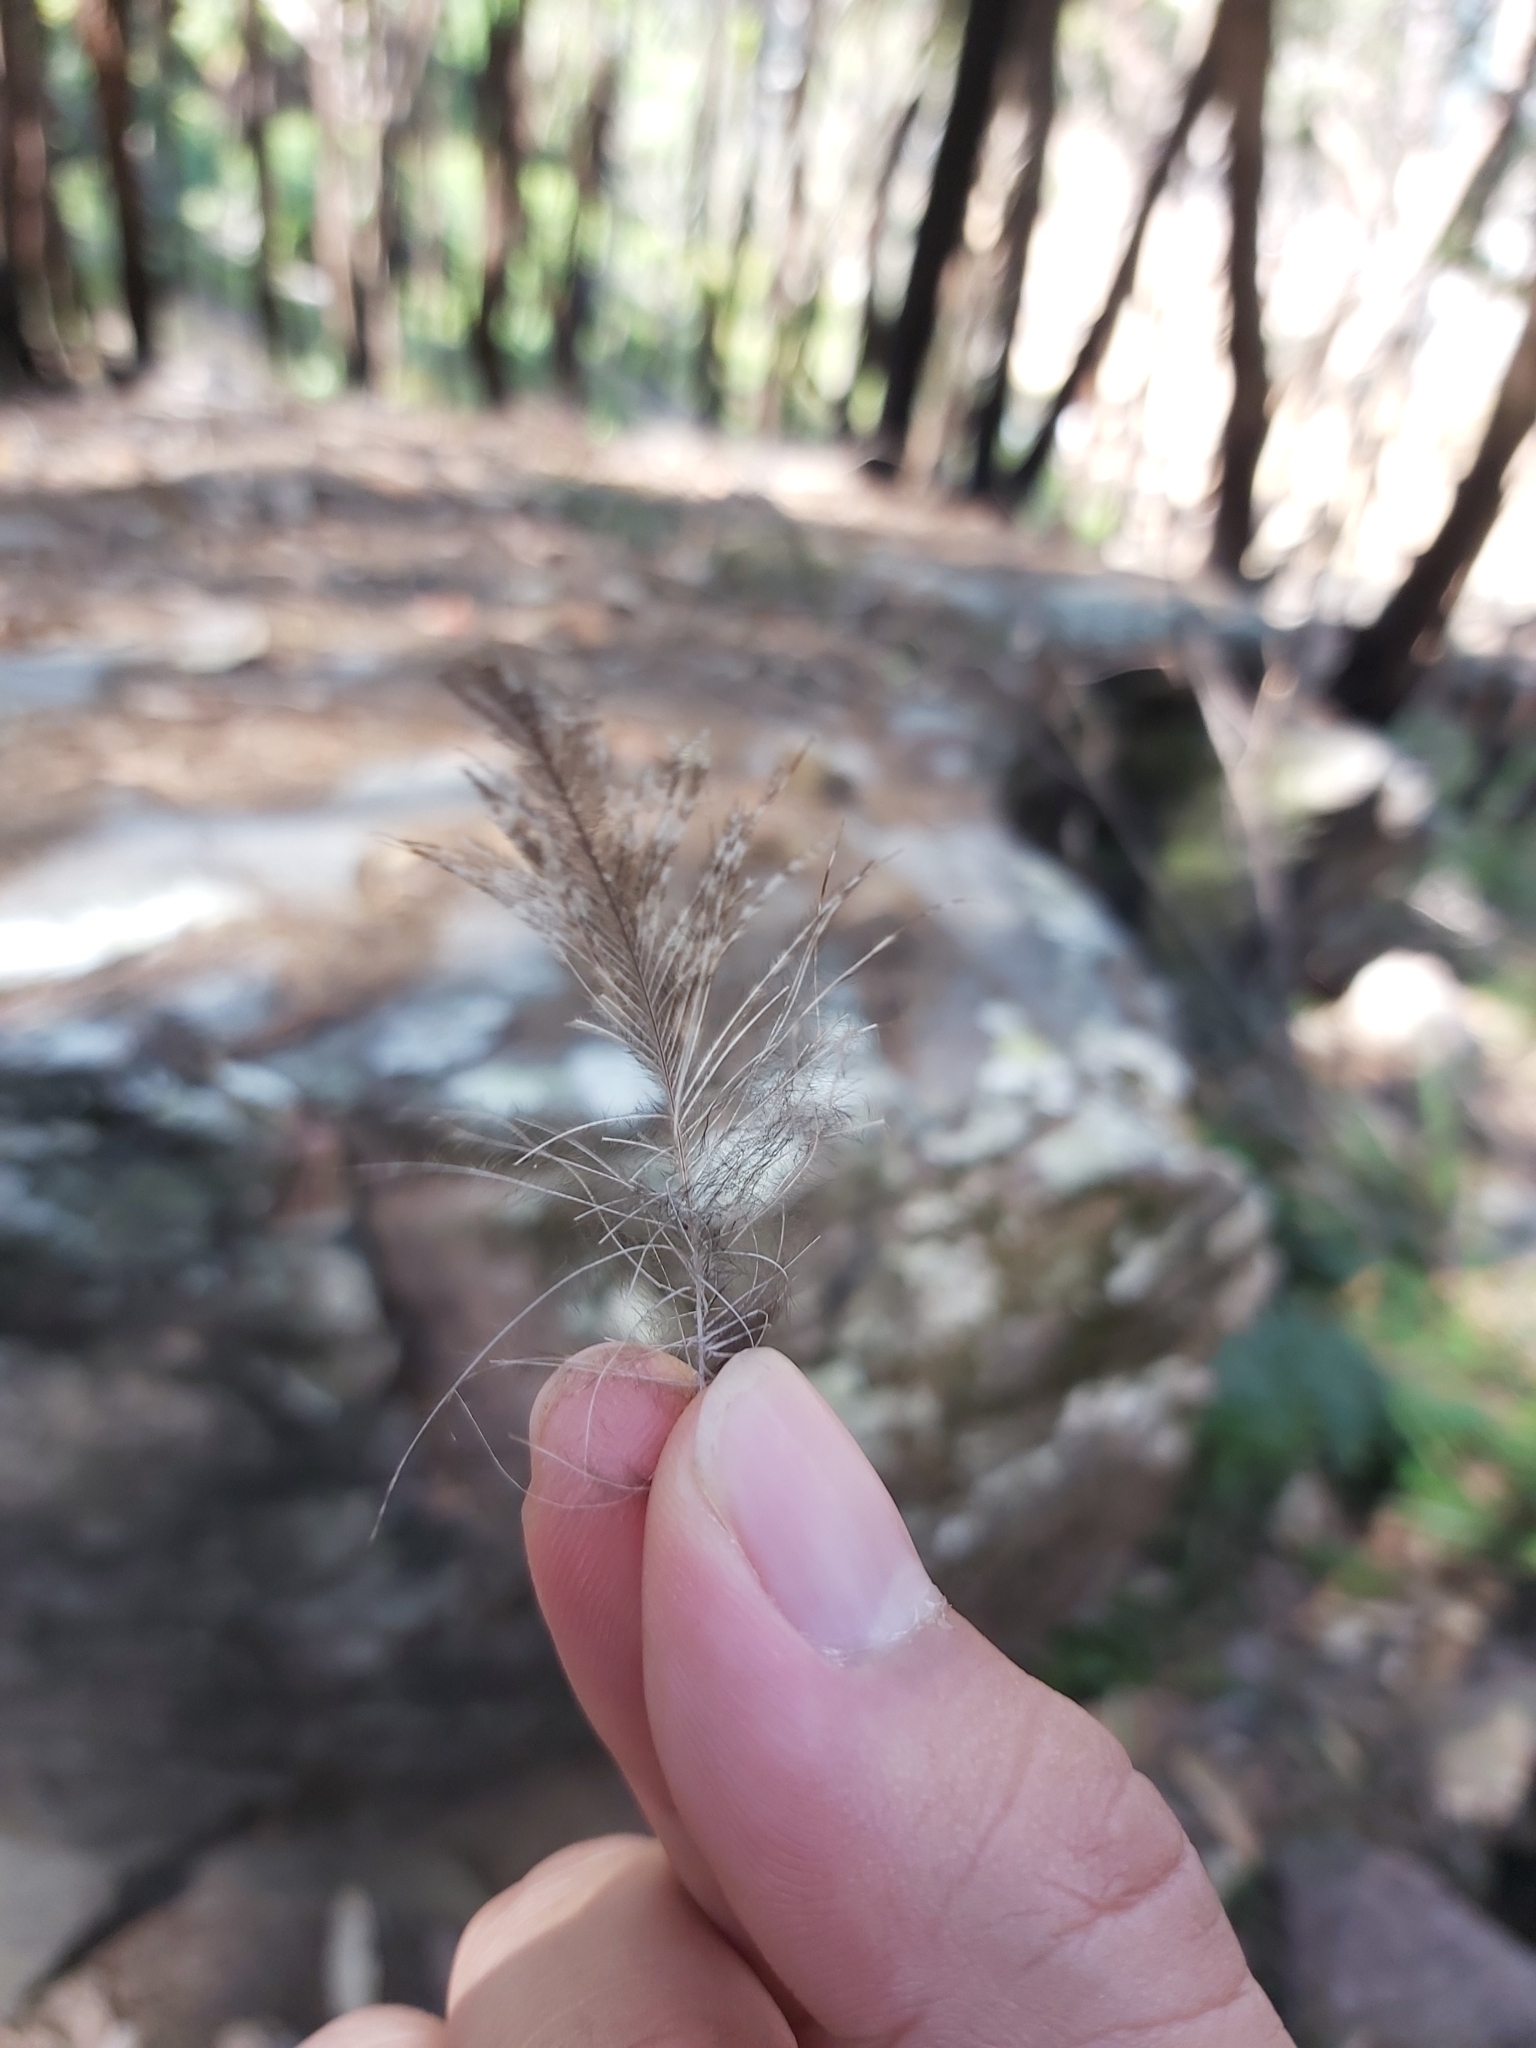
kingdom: Animalia
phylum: Chordata
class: Aves
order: Caprimulgiformes
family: Podargidae
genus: Podargus
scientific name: Podargus strigoides
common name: Tawny frogmouth
